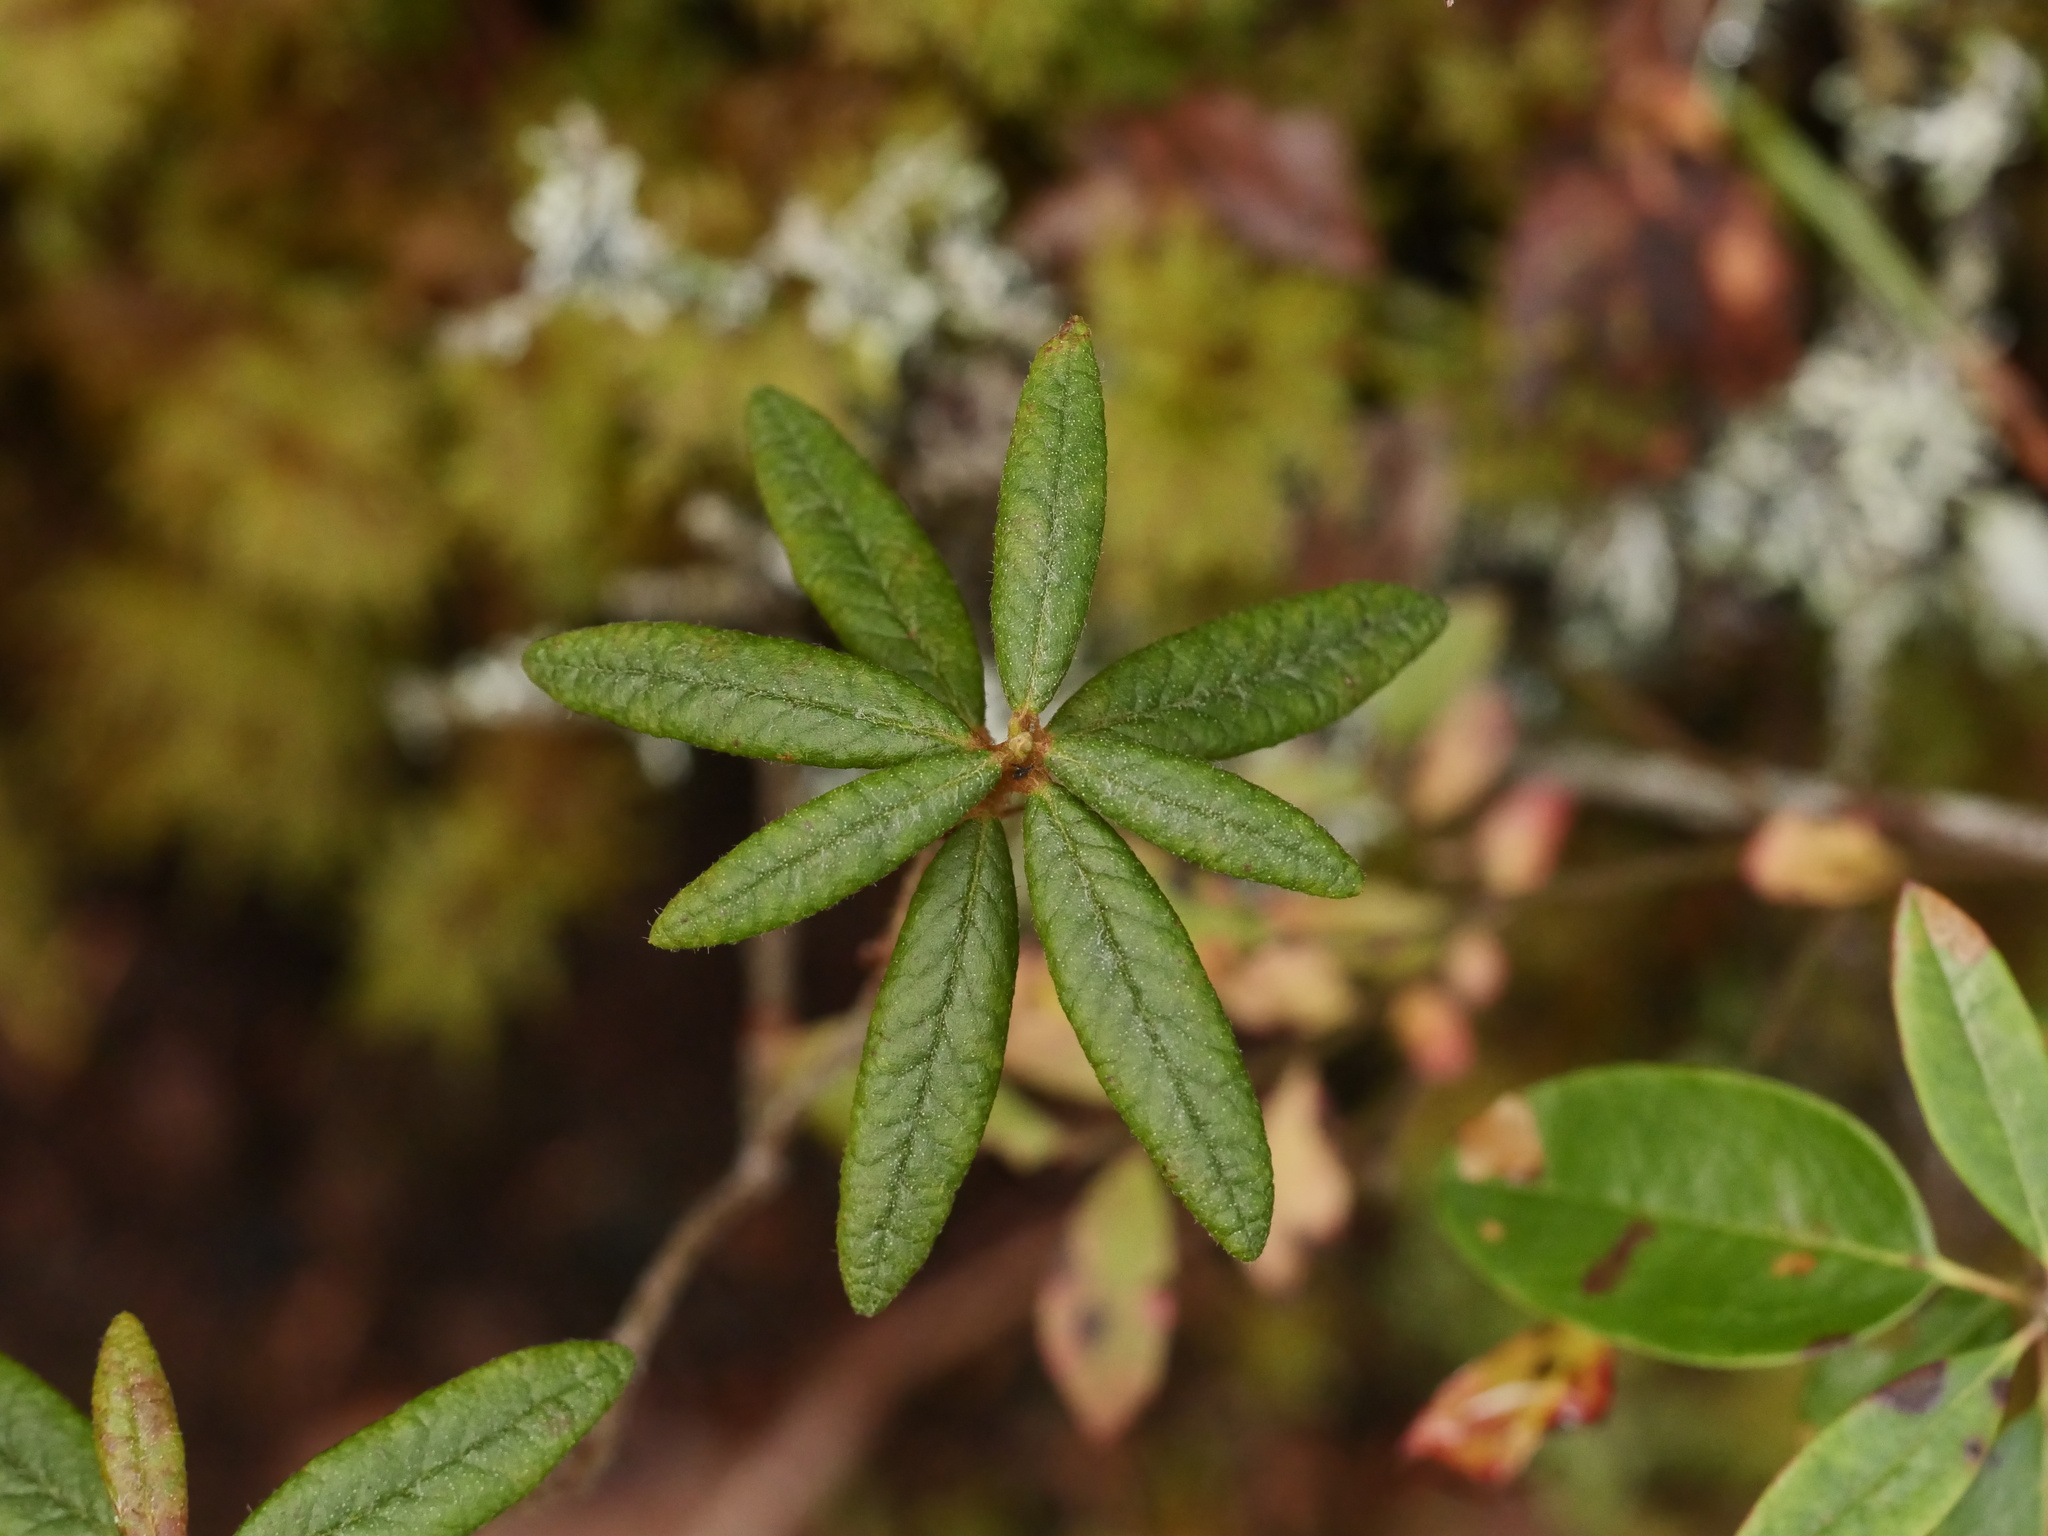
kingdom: Plantae
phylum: Tracheophyta
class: Magnoliopsida
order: Ericales
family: Ericaceae
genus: Rhododendron
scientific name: Rhododendron groenlandicum
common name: Bog labrador tea
